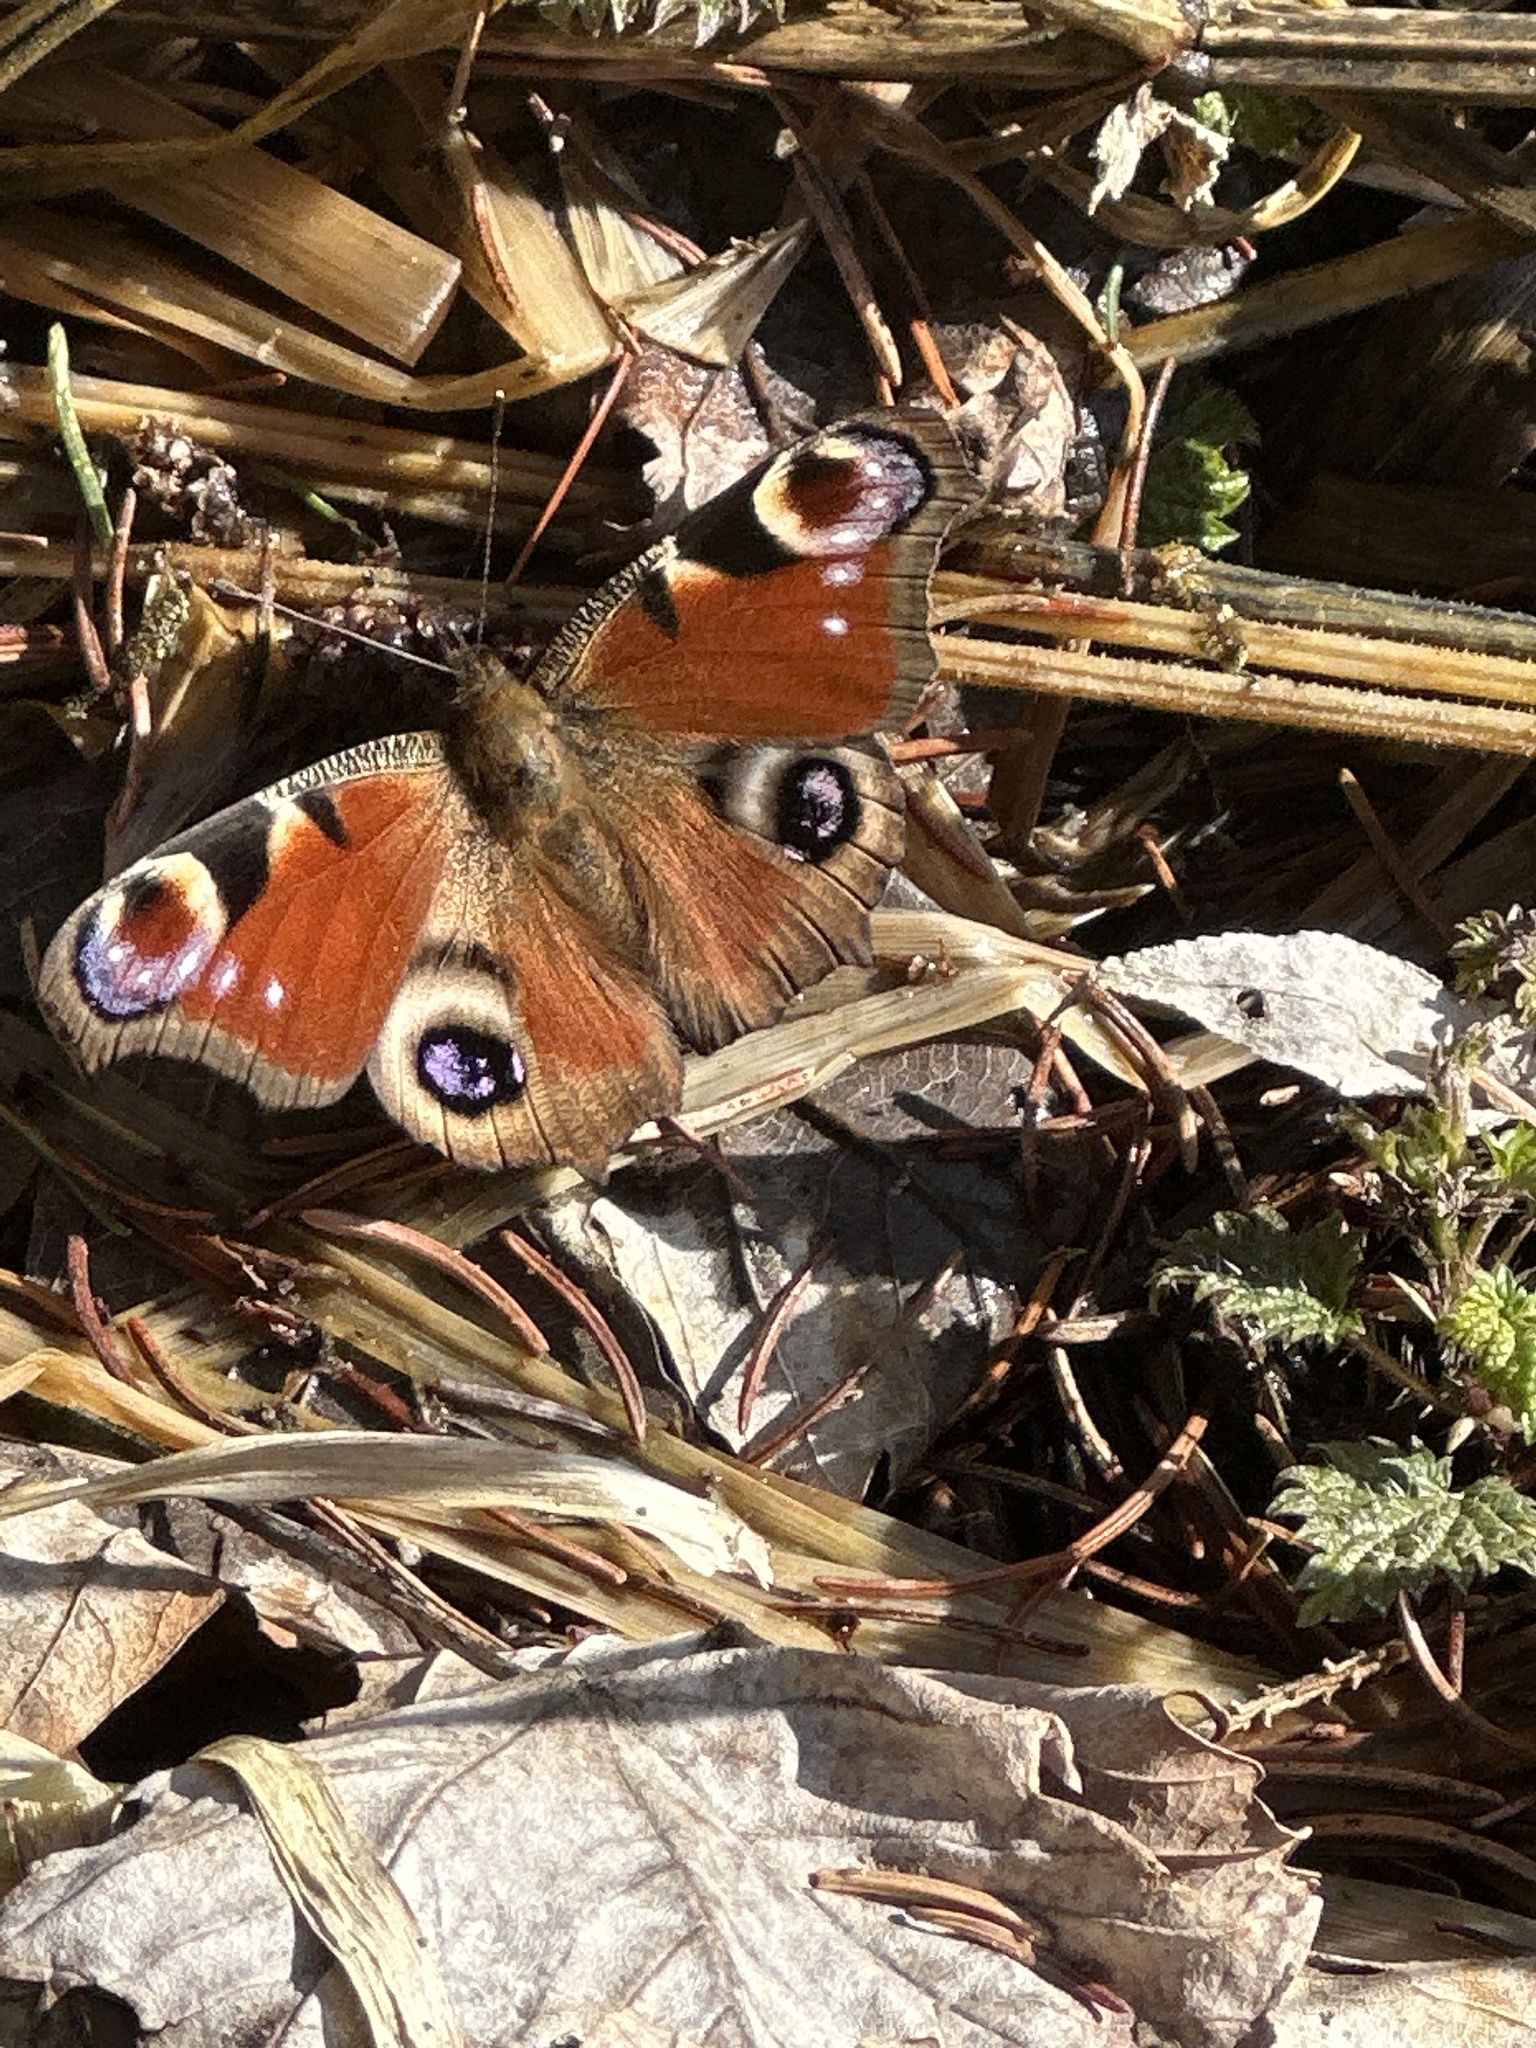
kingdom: Animalia
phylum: Arthropoda
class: Insecta
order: Lepidoptera
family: Nymphalidae
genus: Aglais
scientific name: Aglais io
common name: Peacock
